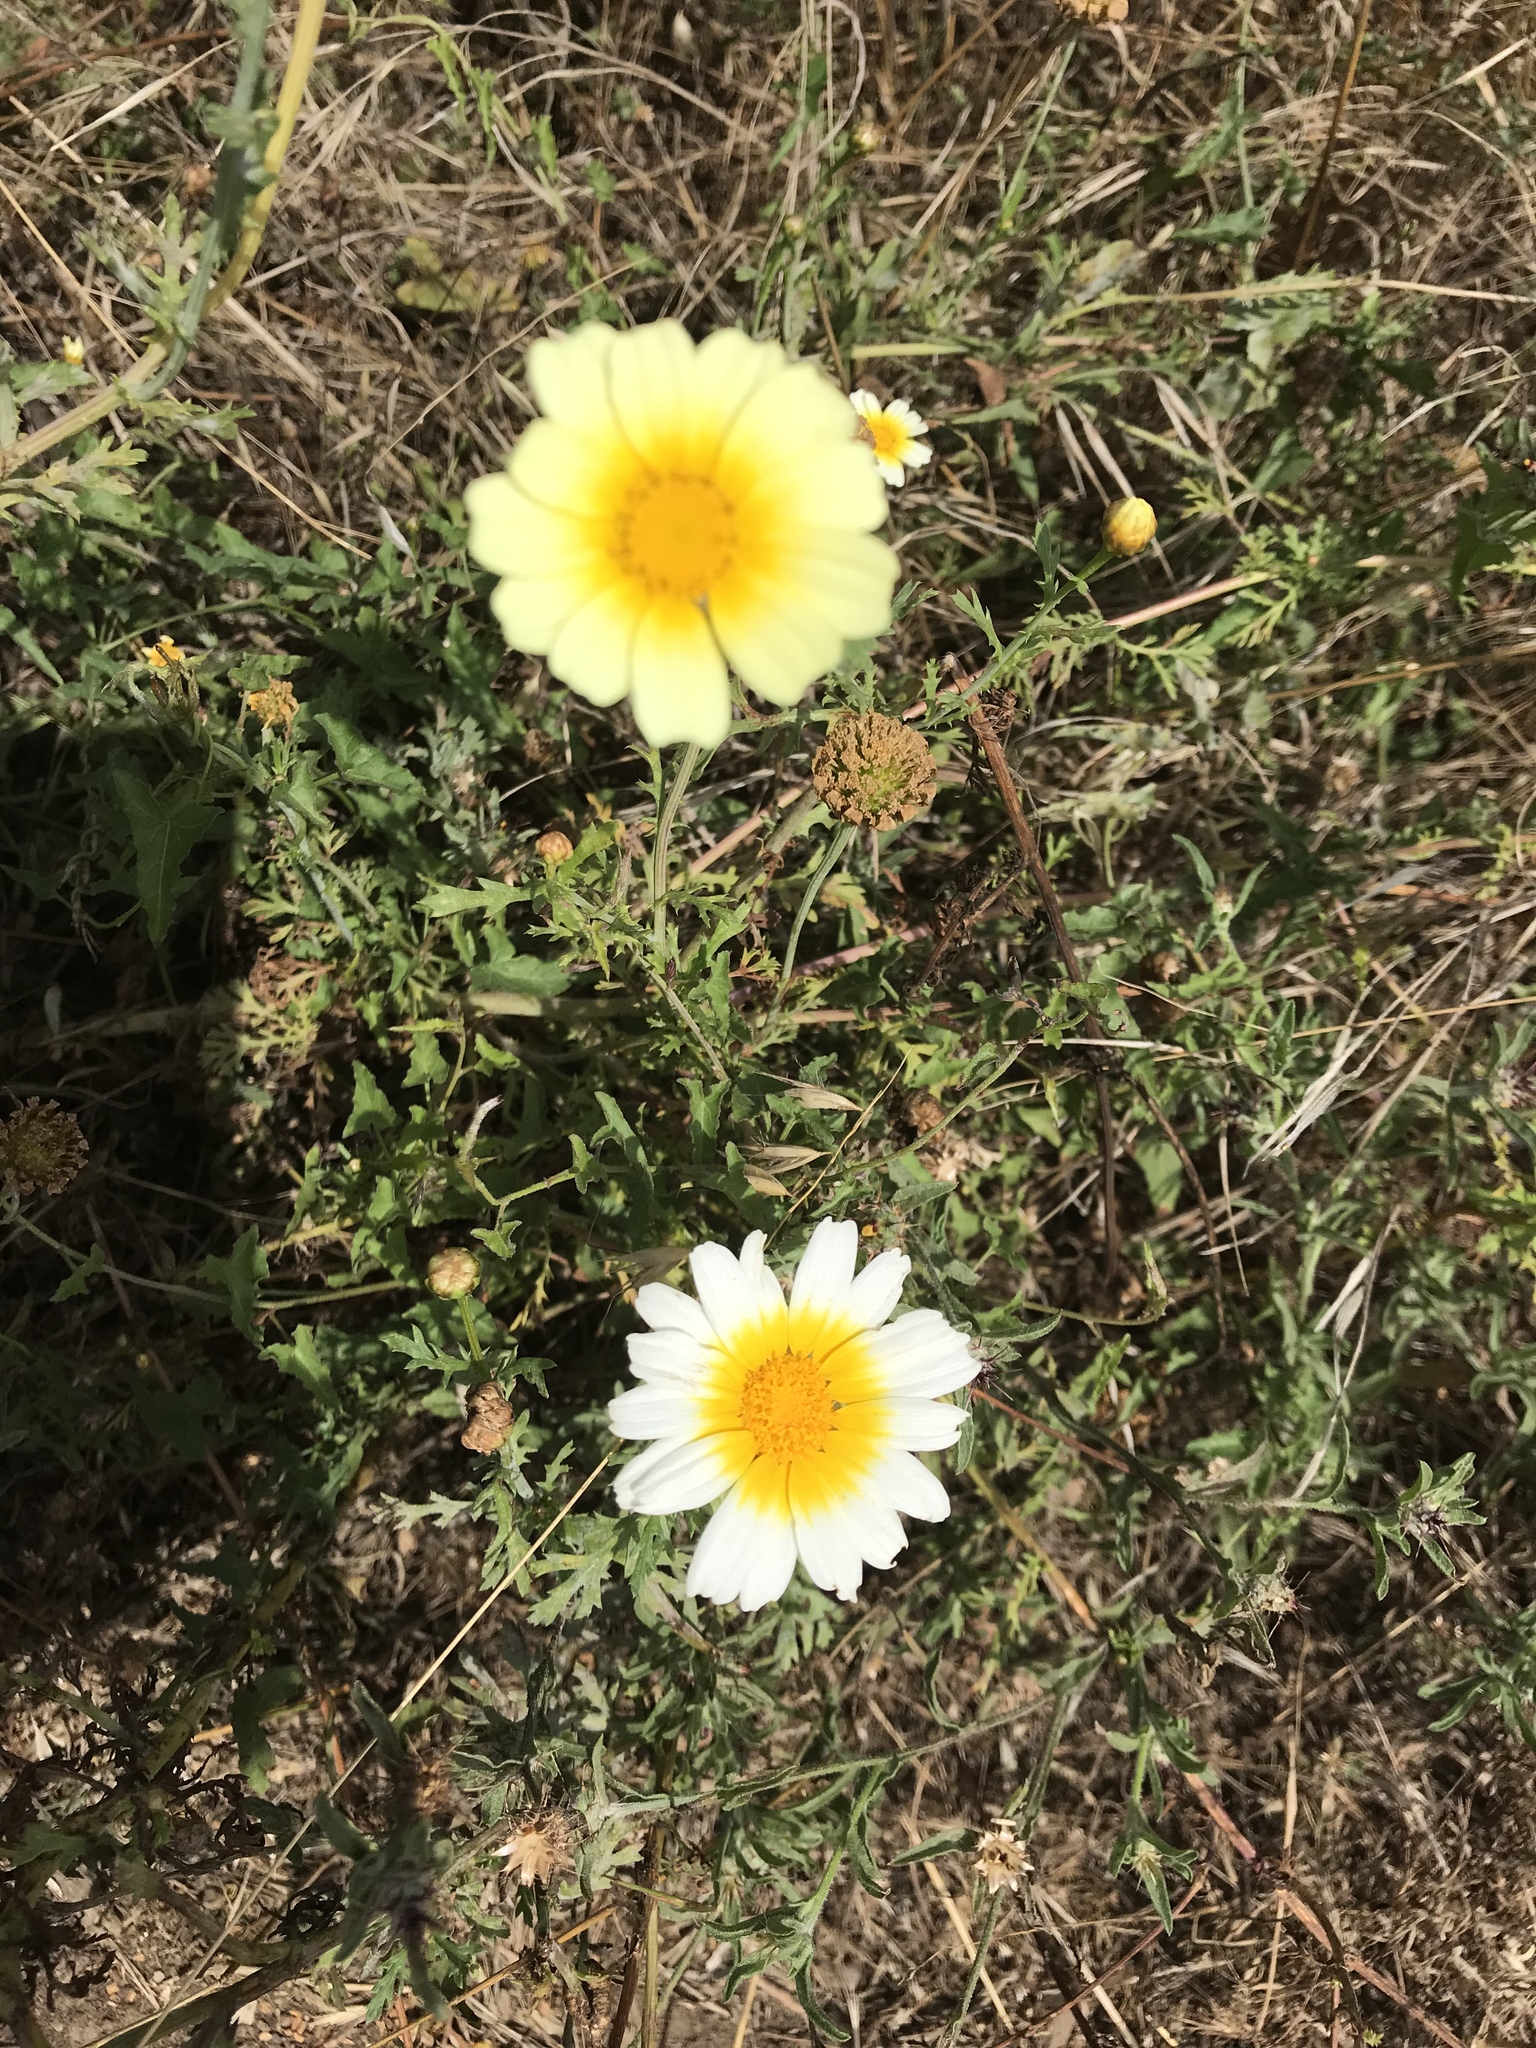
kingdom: Plantae
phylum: Tracheophyta
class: Magnoliopsida
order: Asterales
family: Asteraceae
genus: Glebionis
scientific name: Glebionis coronaria
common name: Crowndaisy
